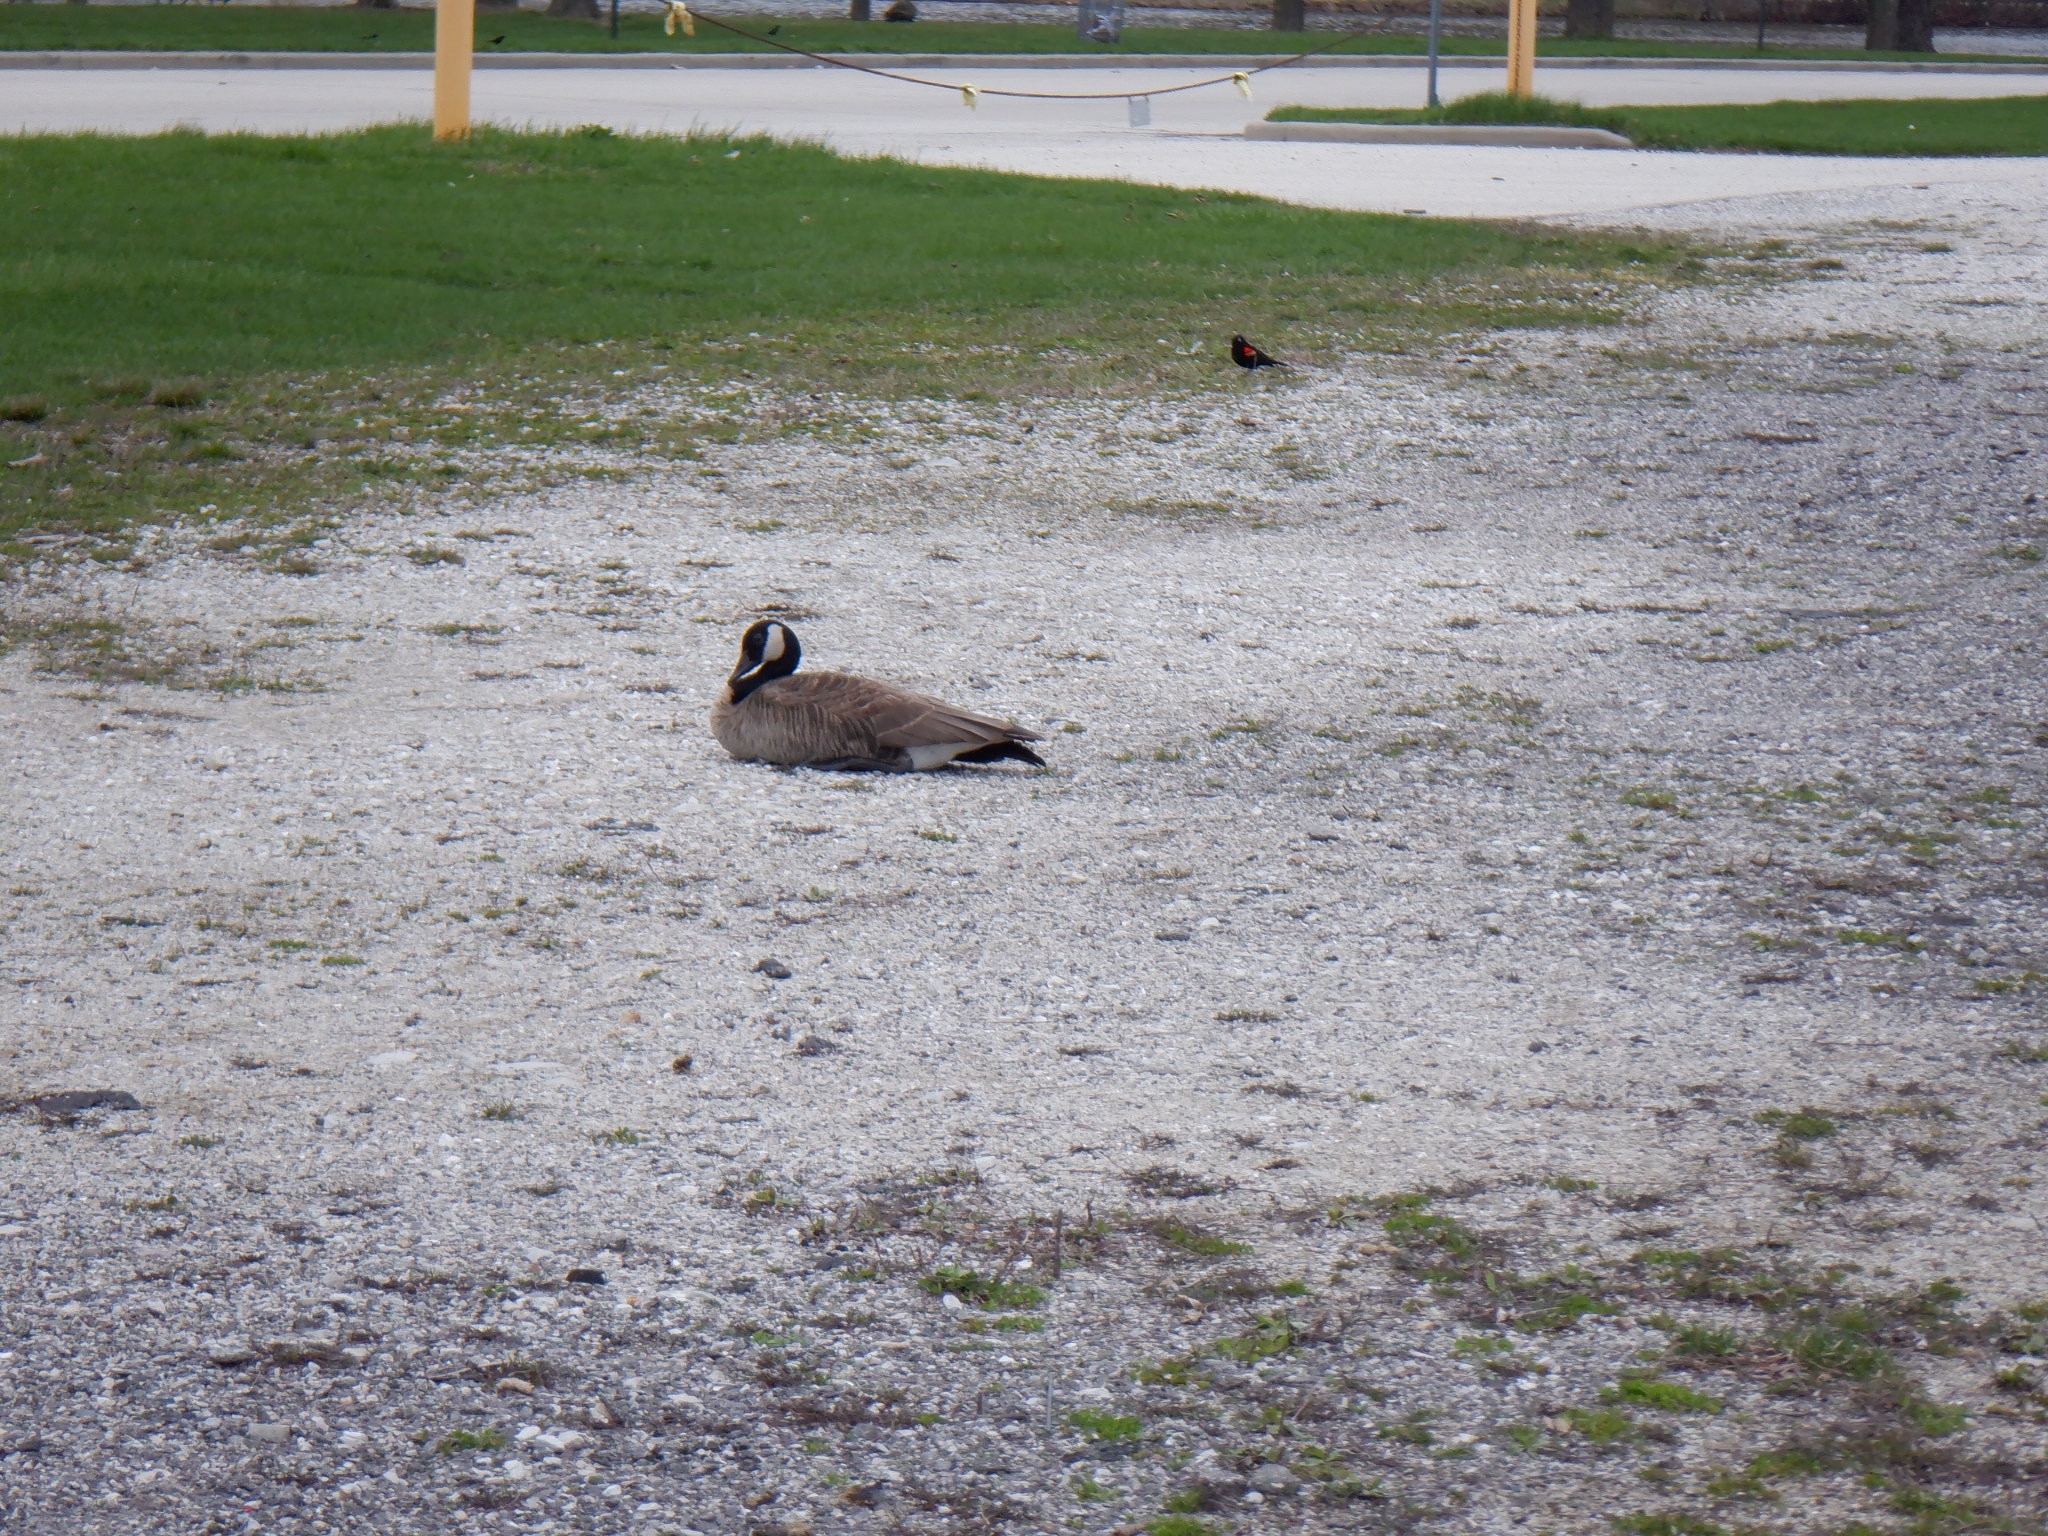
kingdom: Animalia
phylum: Chordata
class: Aves
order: Anseriformes
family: Anatidae
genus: Branta
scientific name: Branta canadensis
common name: Canada goose
